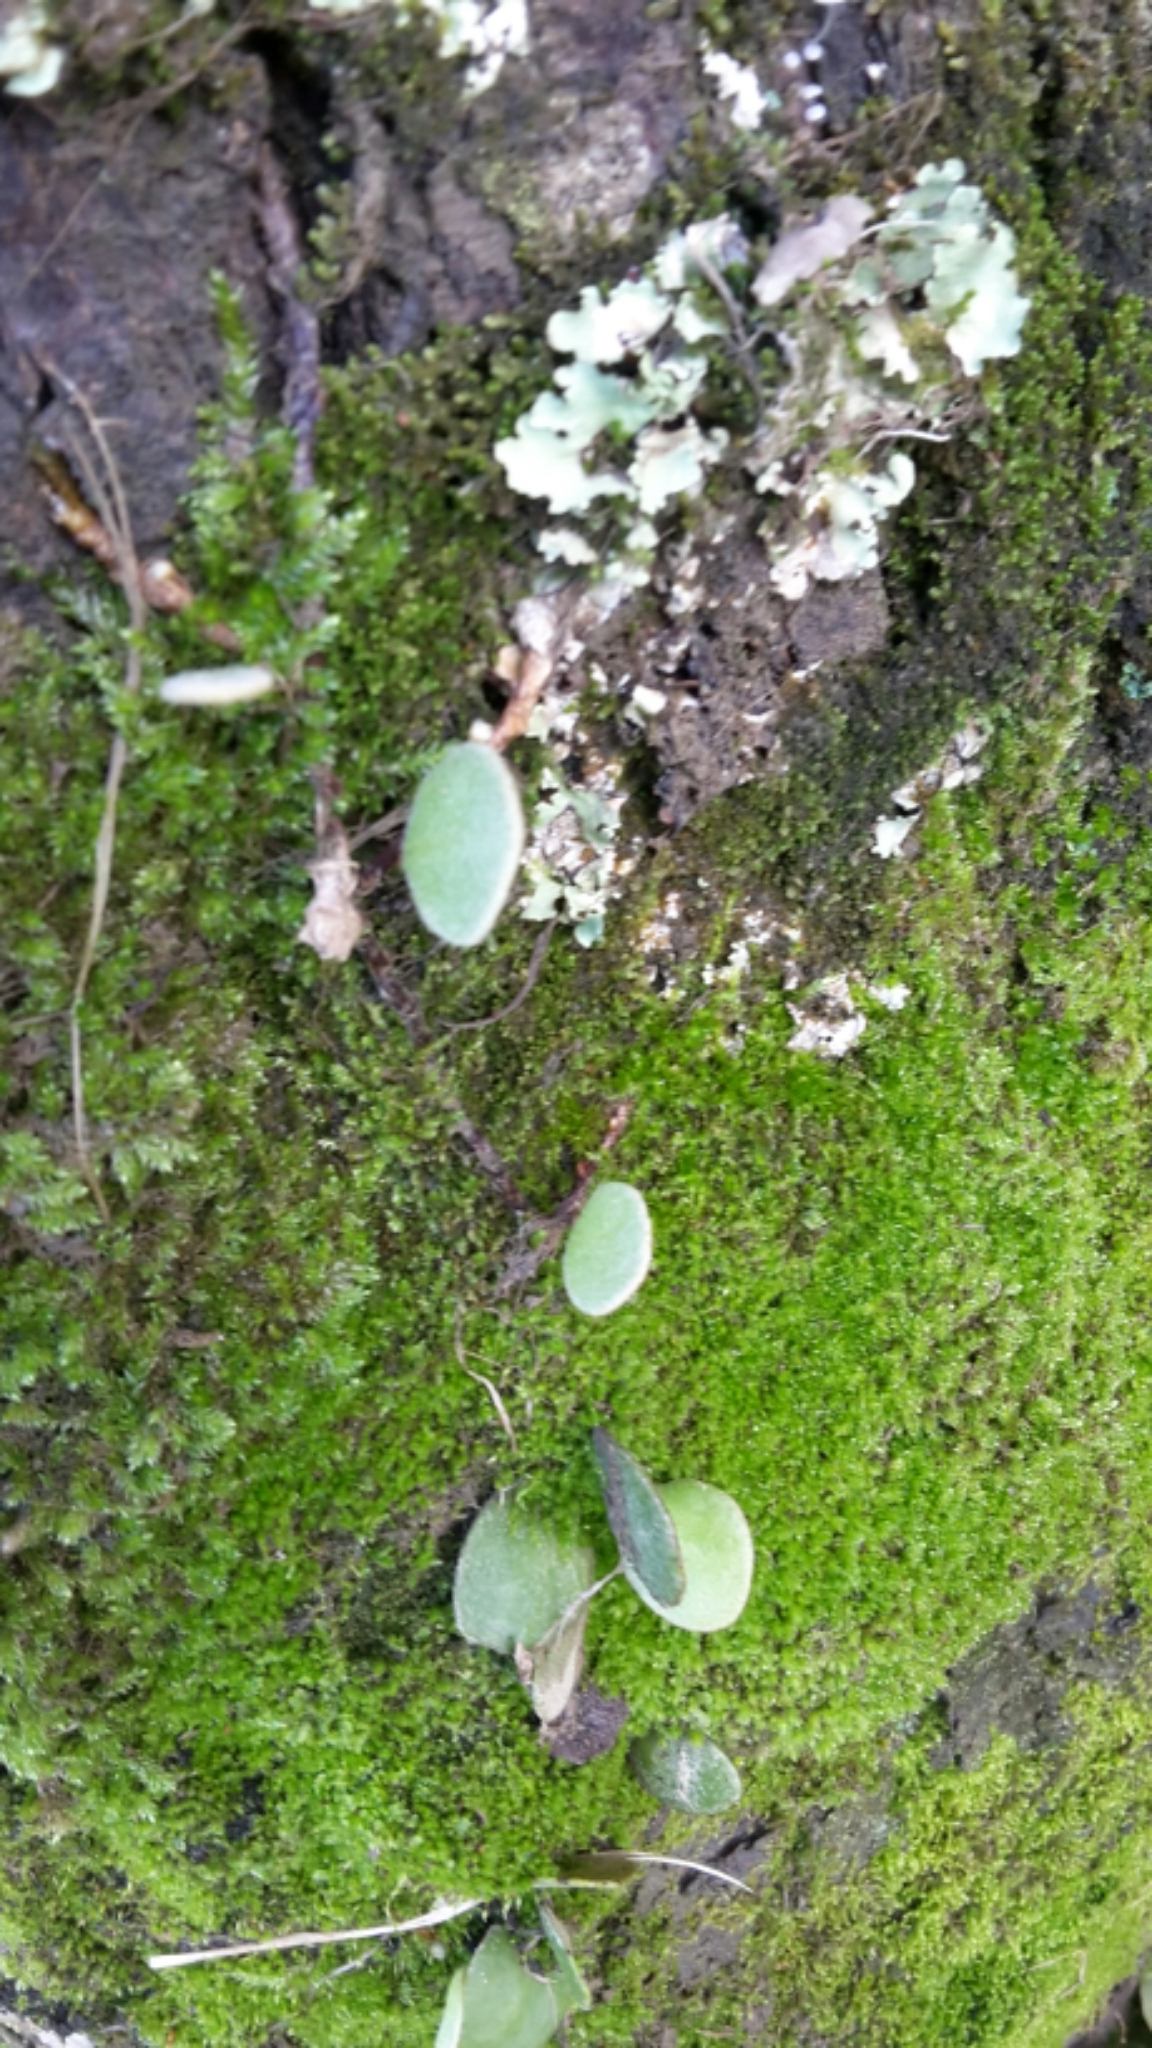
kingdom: Plantae
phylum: Tracheophyta
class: Polypodiopsida
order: Polypodiales
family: Polypodiaceae
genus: Pyrrosia
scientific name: Pyrrosia eleagnifolia
